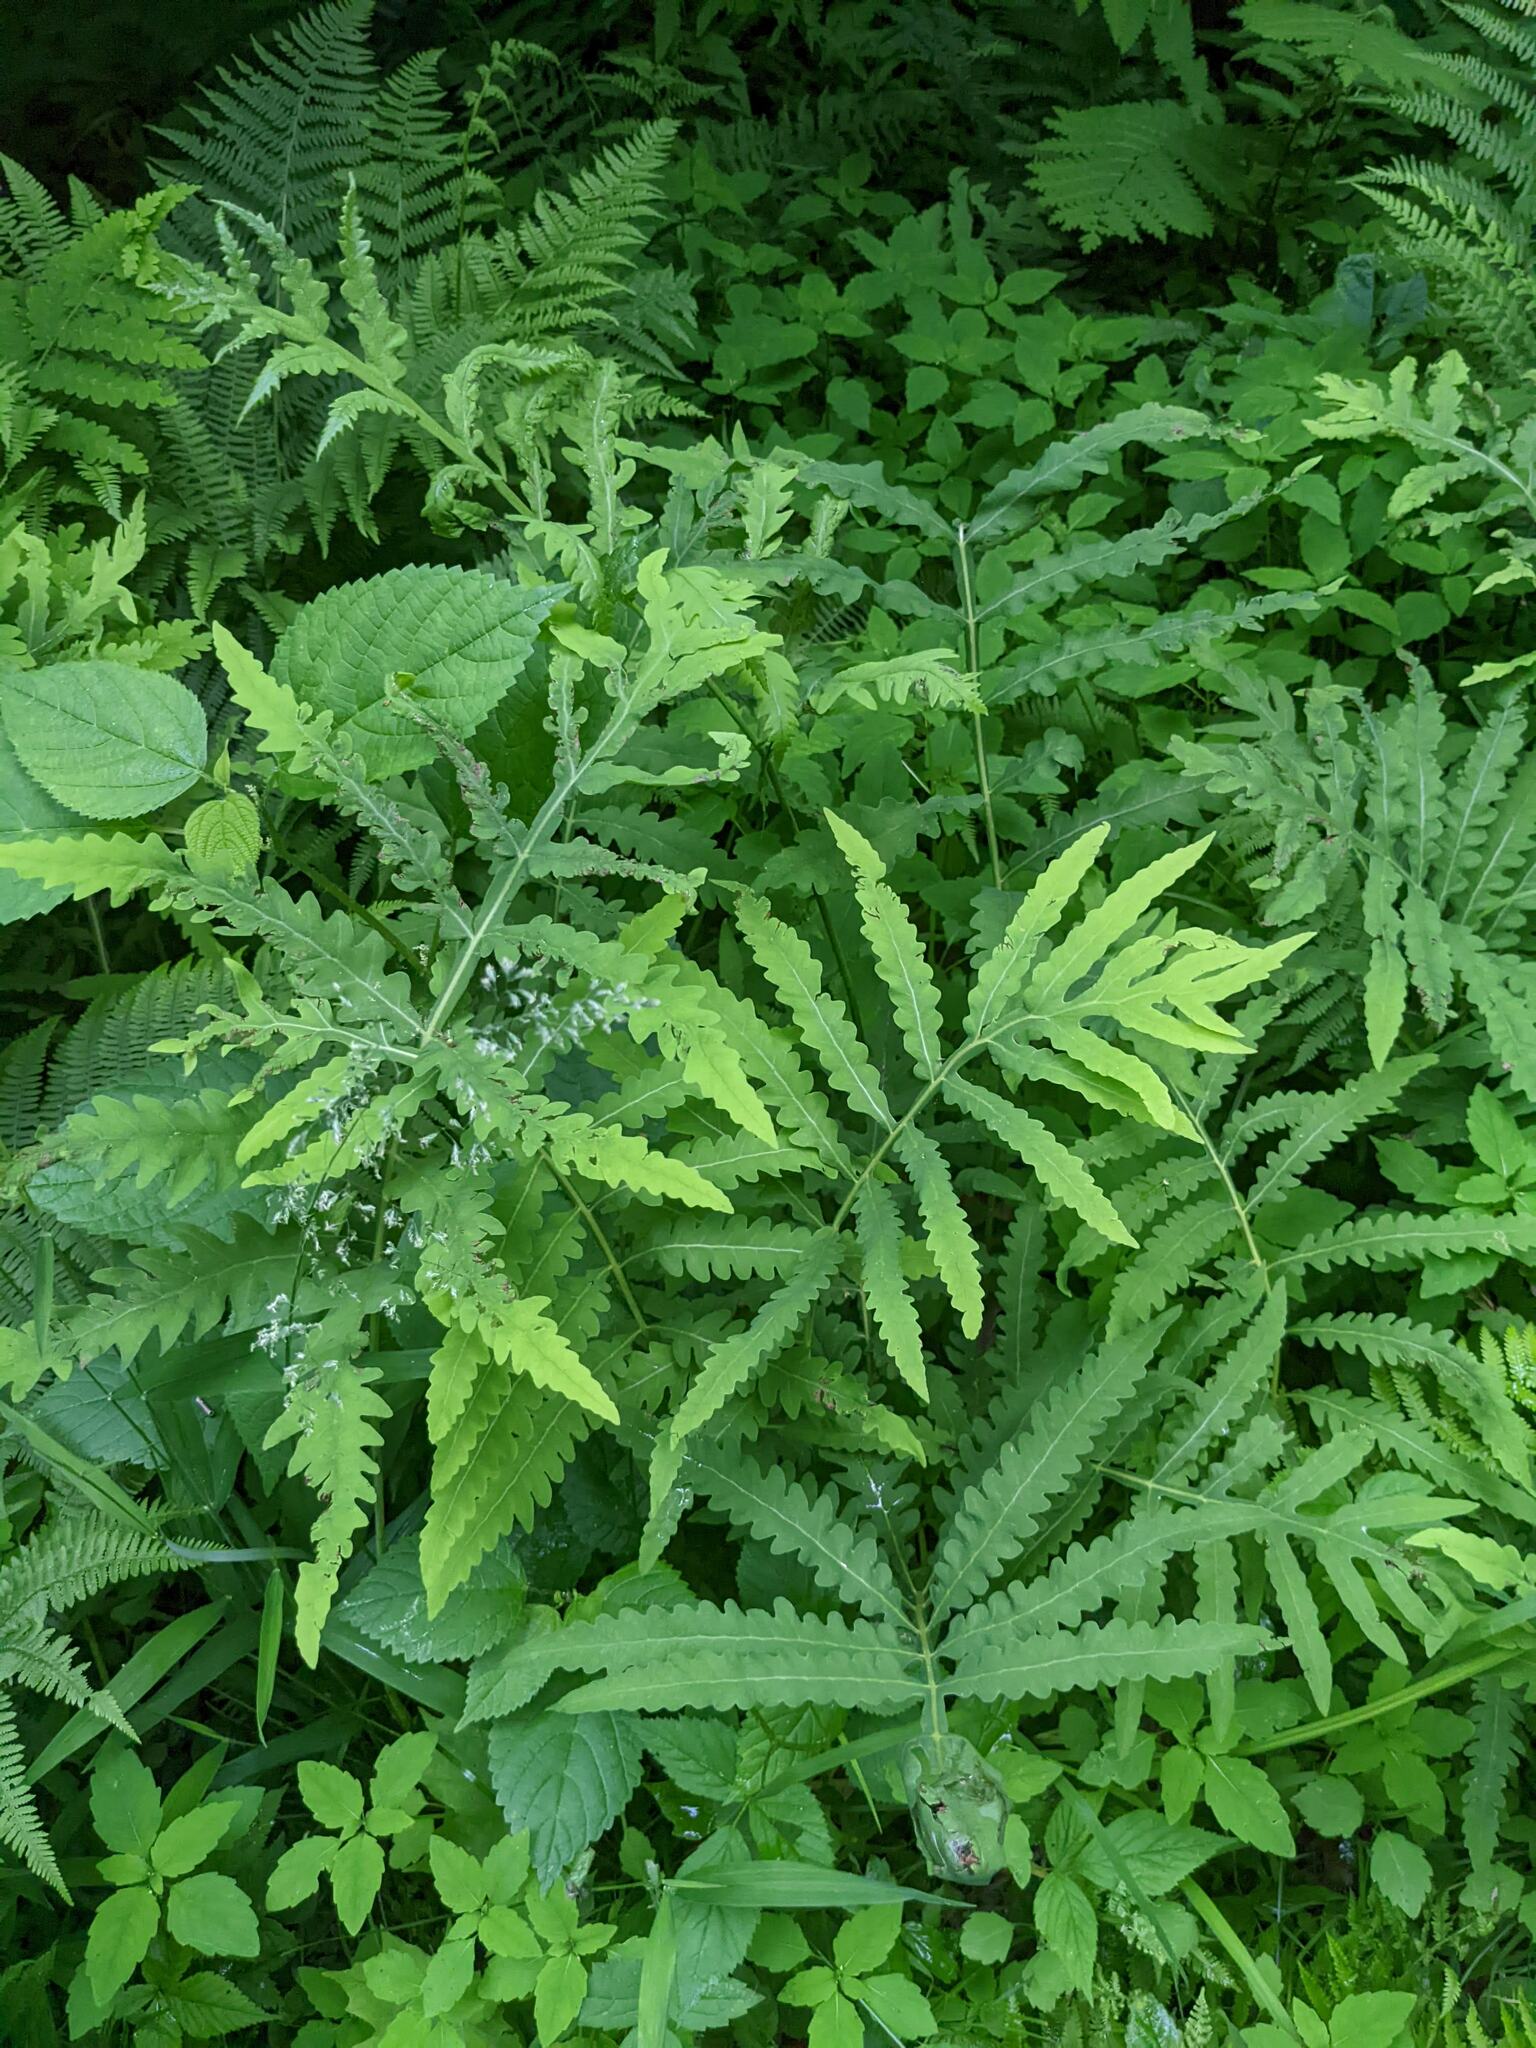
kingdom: Plantae
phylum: Tracheophyta
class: Polypodiopsida
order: Polypodiales
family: Onocleaceae
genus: Onoclea
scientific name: Onoclea sensibilis
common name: Sensitive fern
